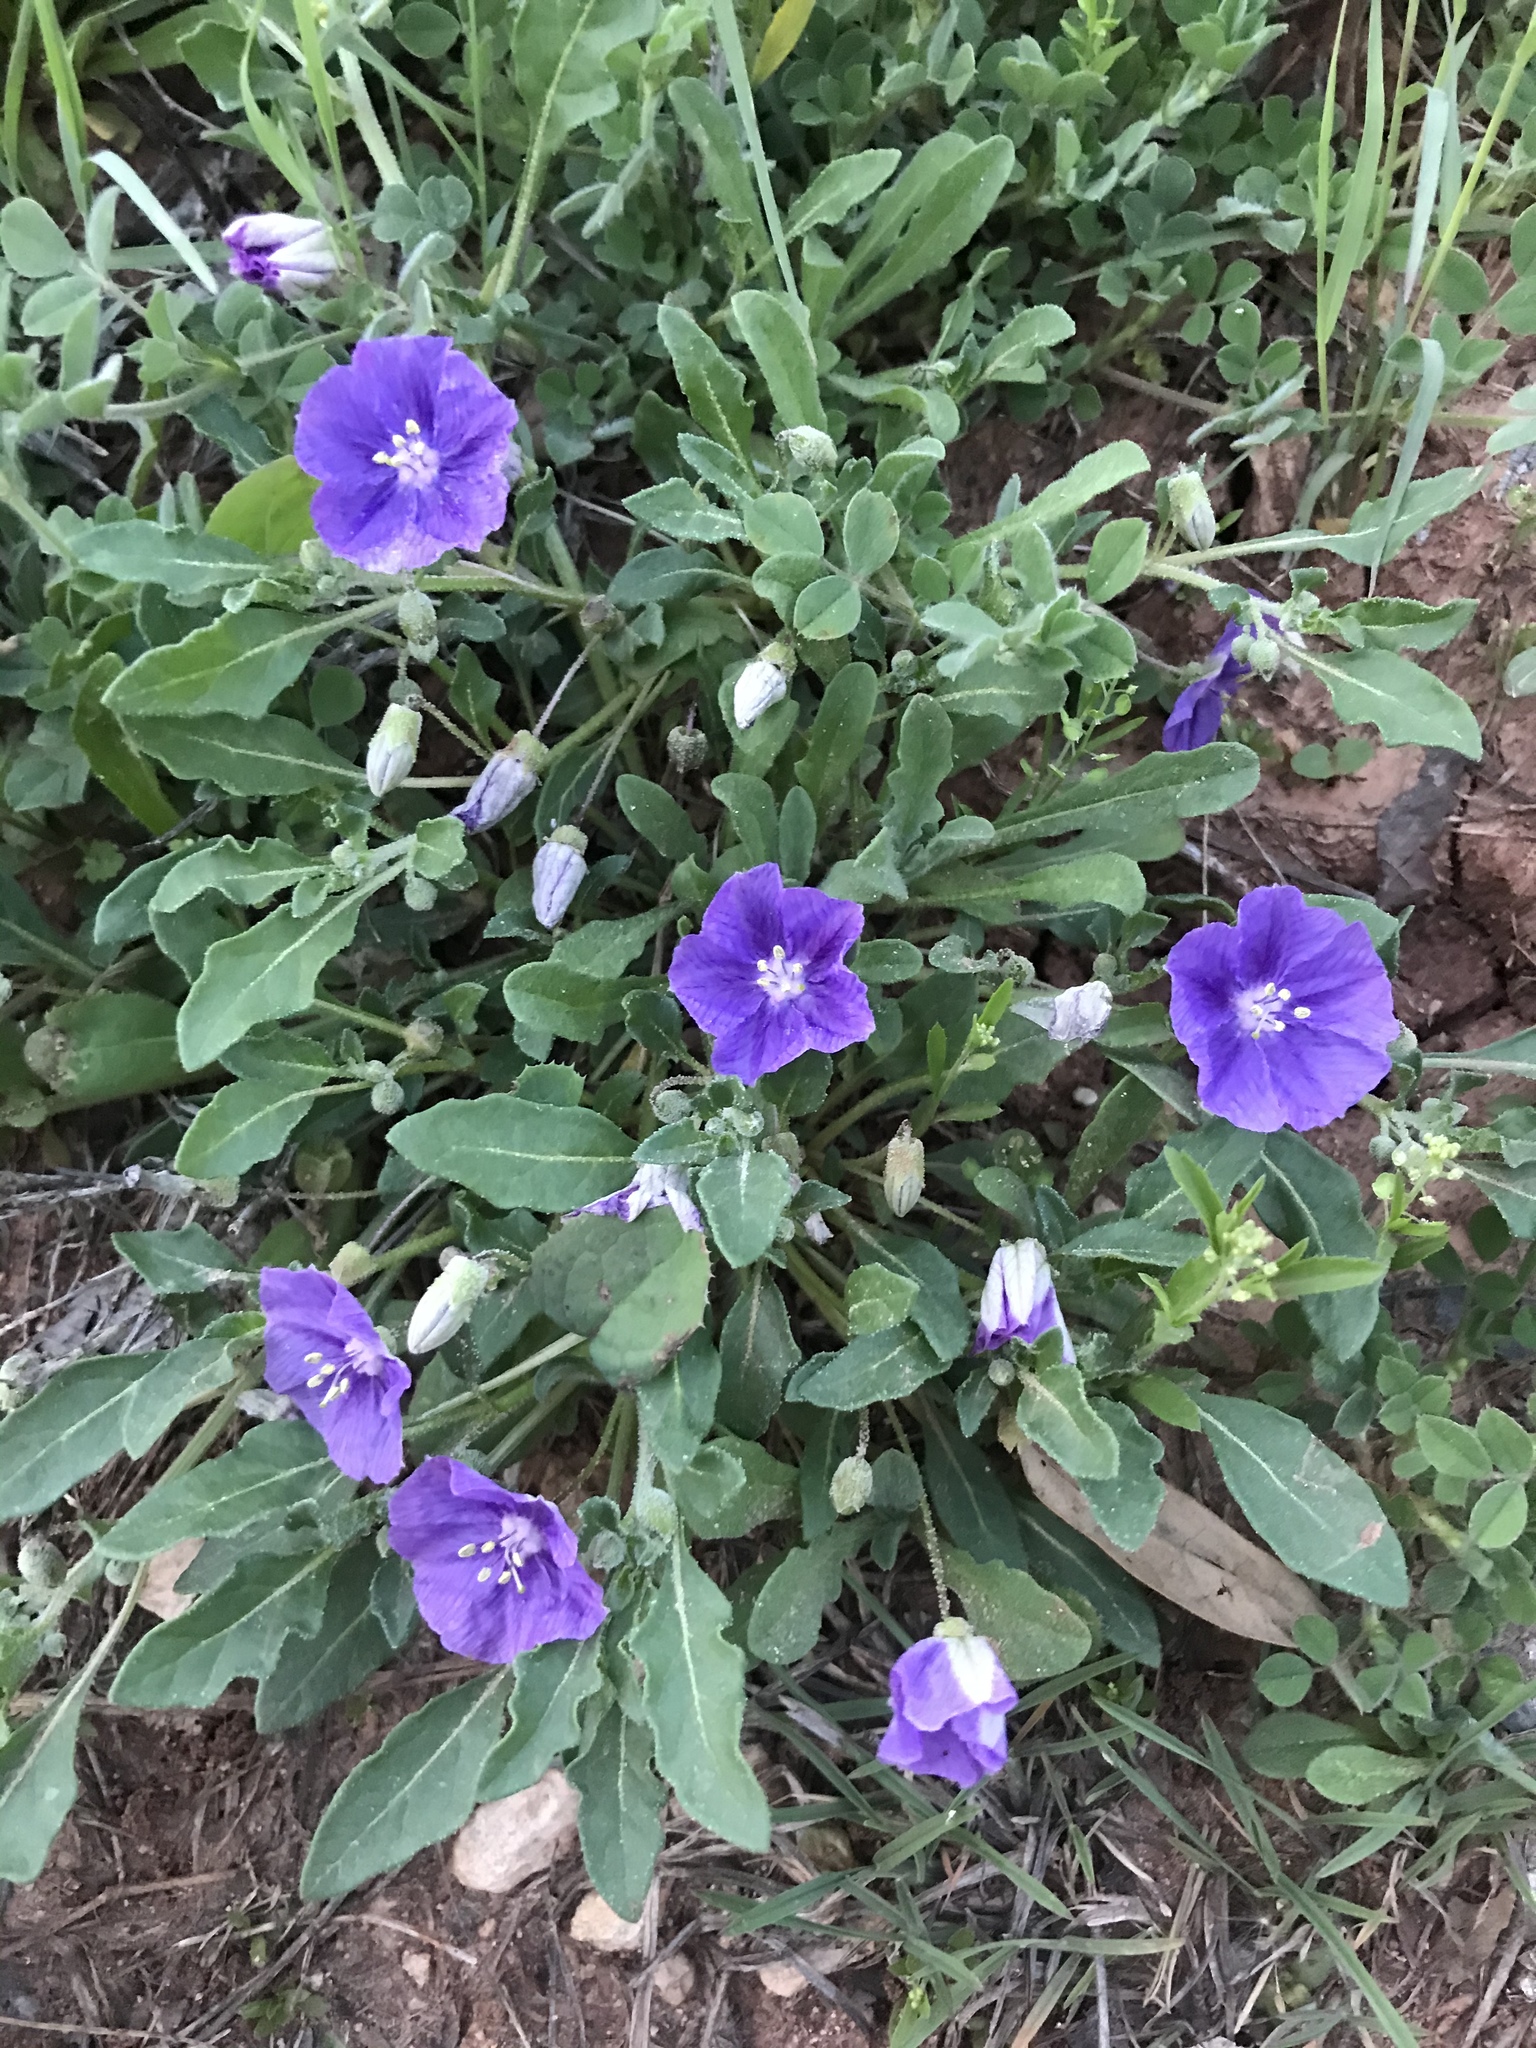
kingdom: Plantae
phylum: Tracheophyta
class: Magnoliopsida
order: Solanales
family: Solanaceae
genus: Quincula
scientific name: Quincula lobata
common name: Purple-ground-cherry
